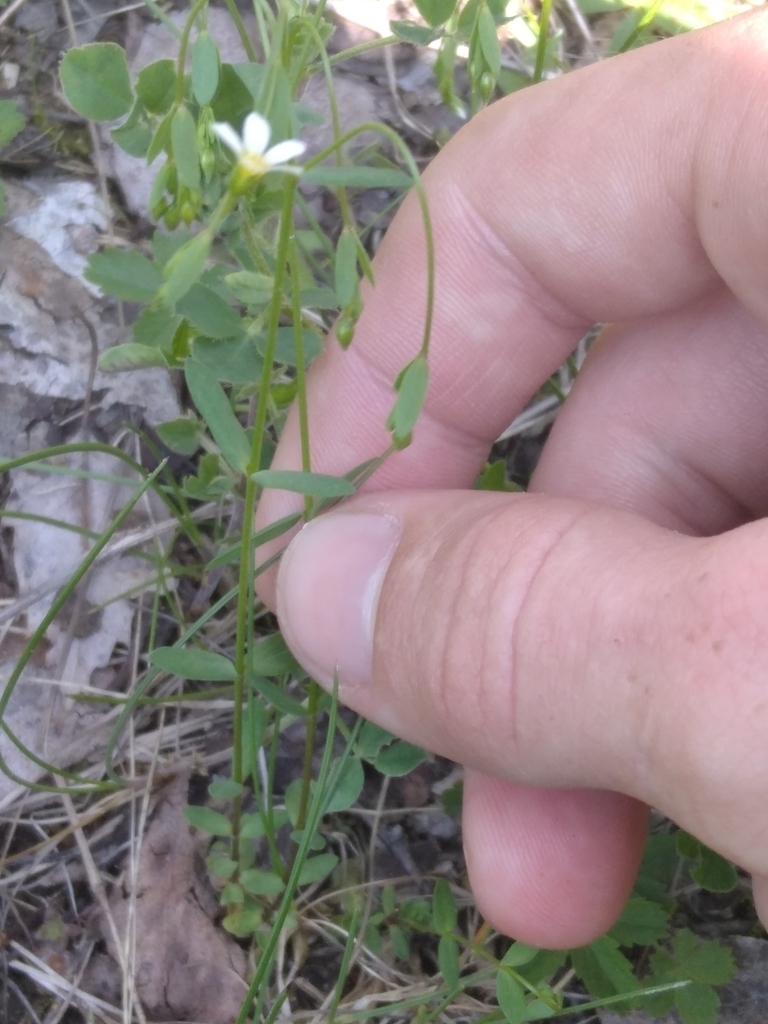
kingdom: Plantae
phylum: Tracheophyta
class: Magnoliopsida
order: Malpighiales
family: Linaceae
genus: Linum
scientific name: Linum catharticum
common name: Fairy flax
